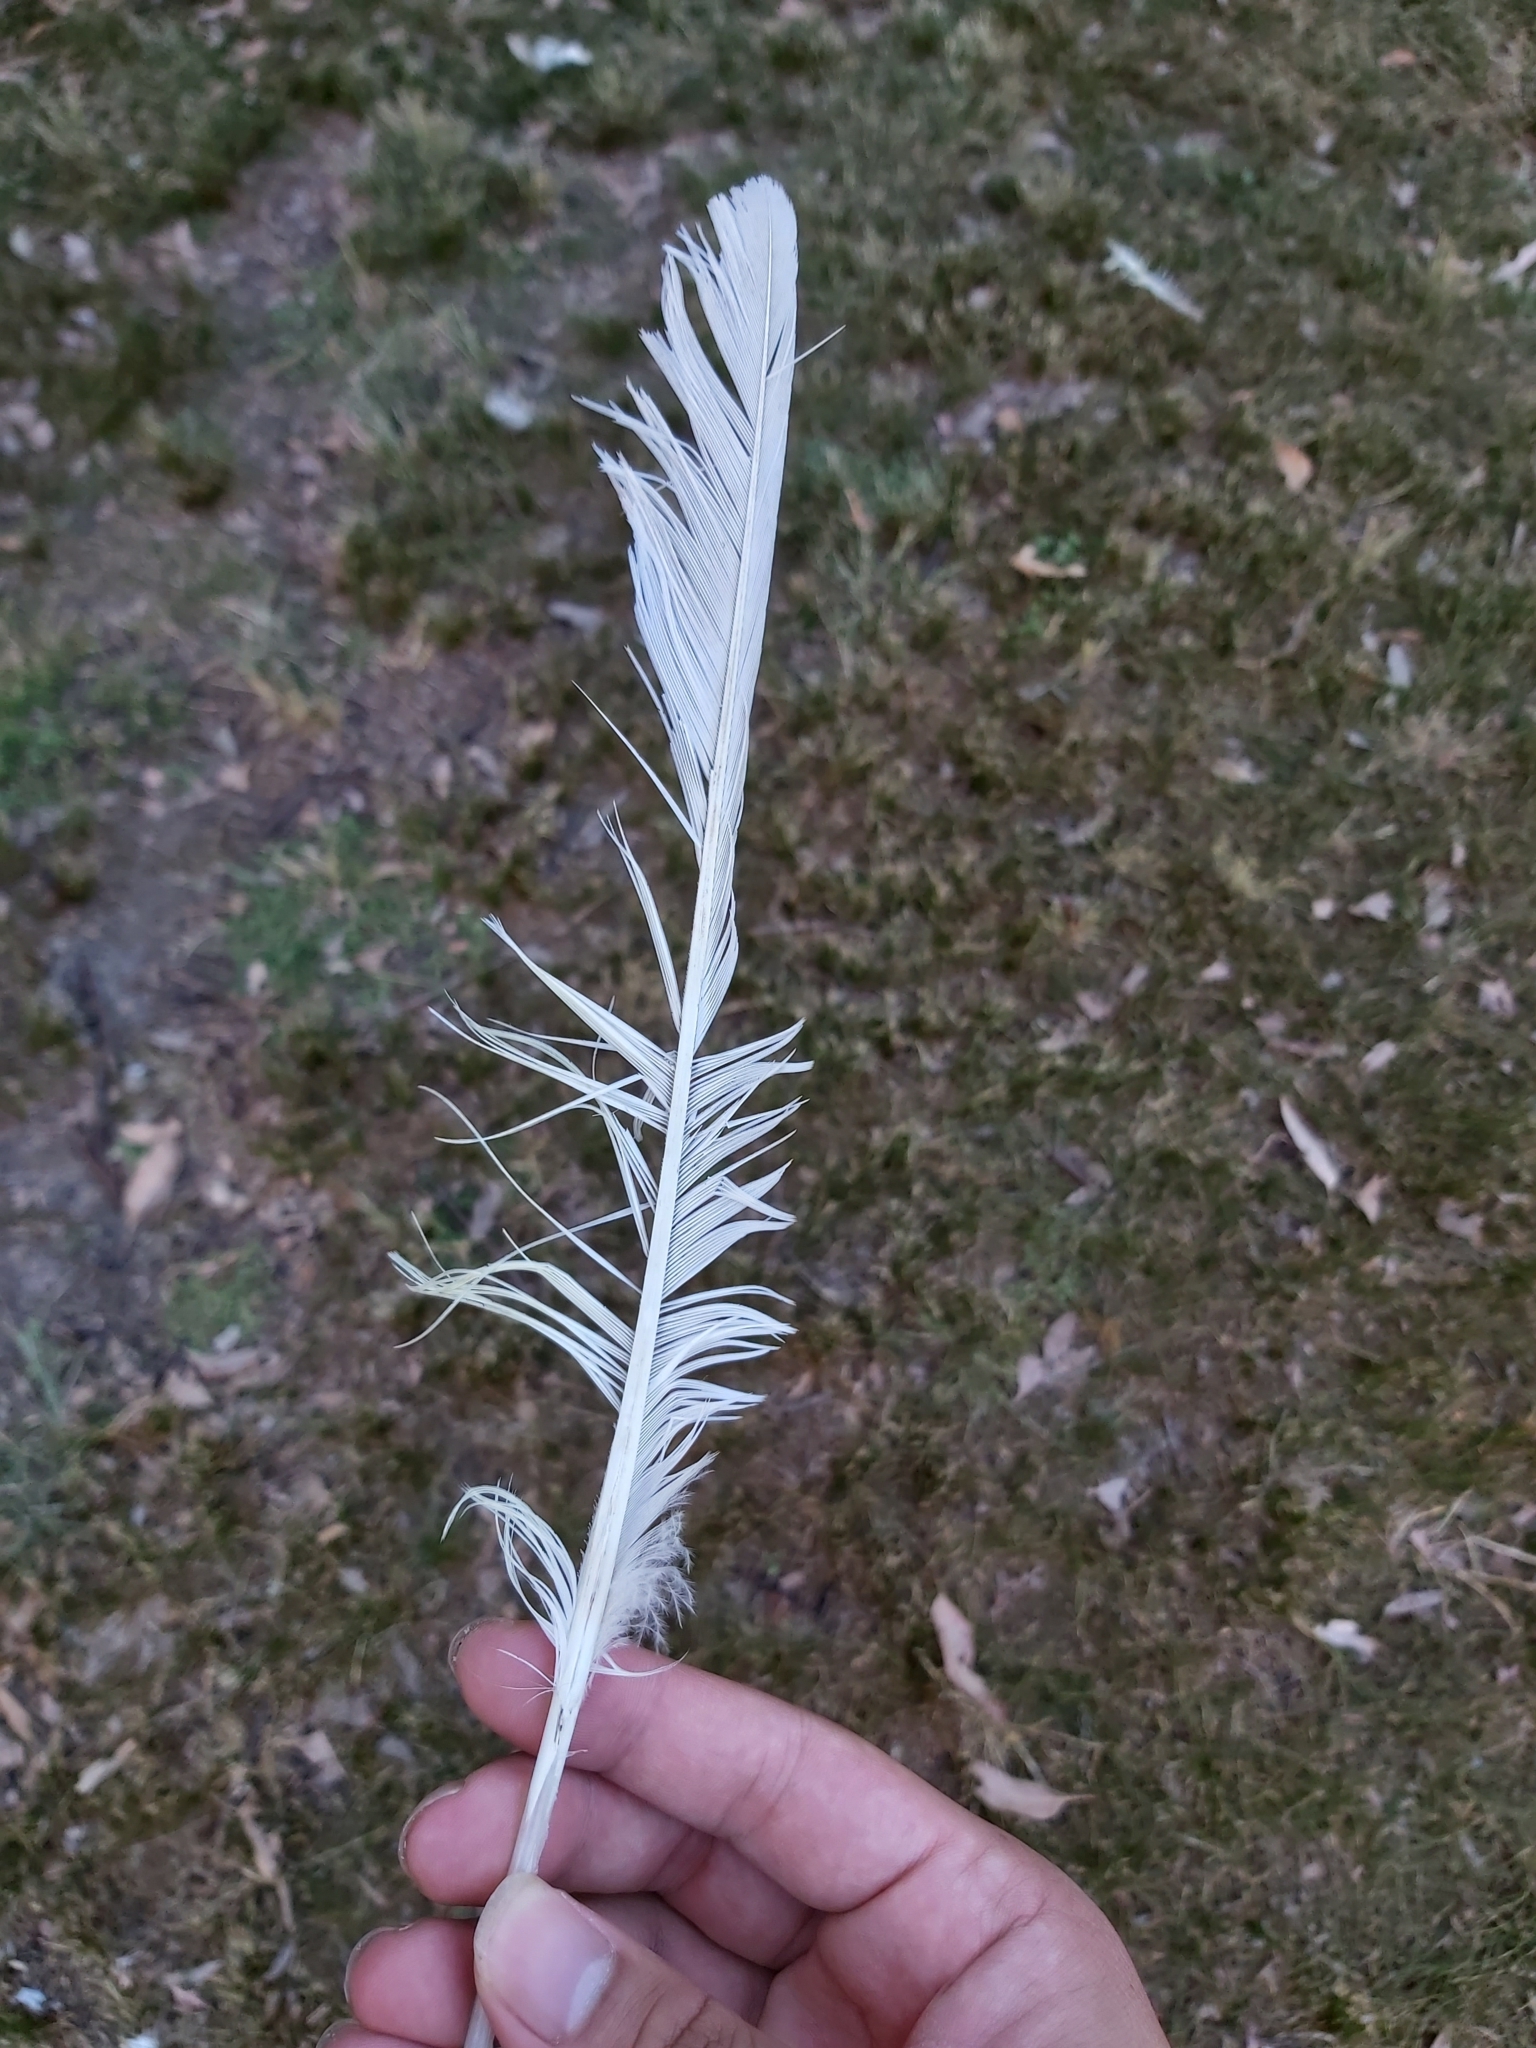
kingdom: Animalia
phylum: Chordata
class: Aves
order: Psittaciformes
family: Psittacidae
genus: Cacatua
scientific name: Cacatua galerita
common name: Sulphur-crested cockatoo
